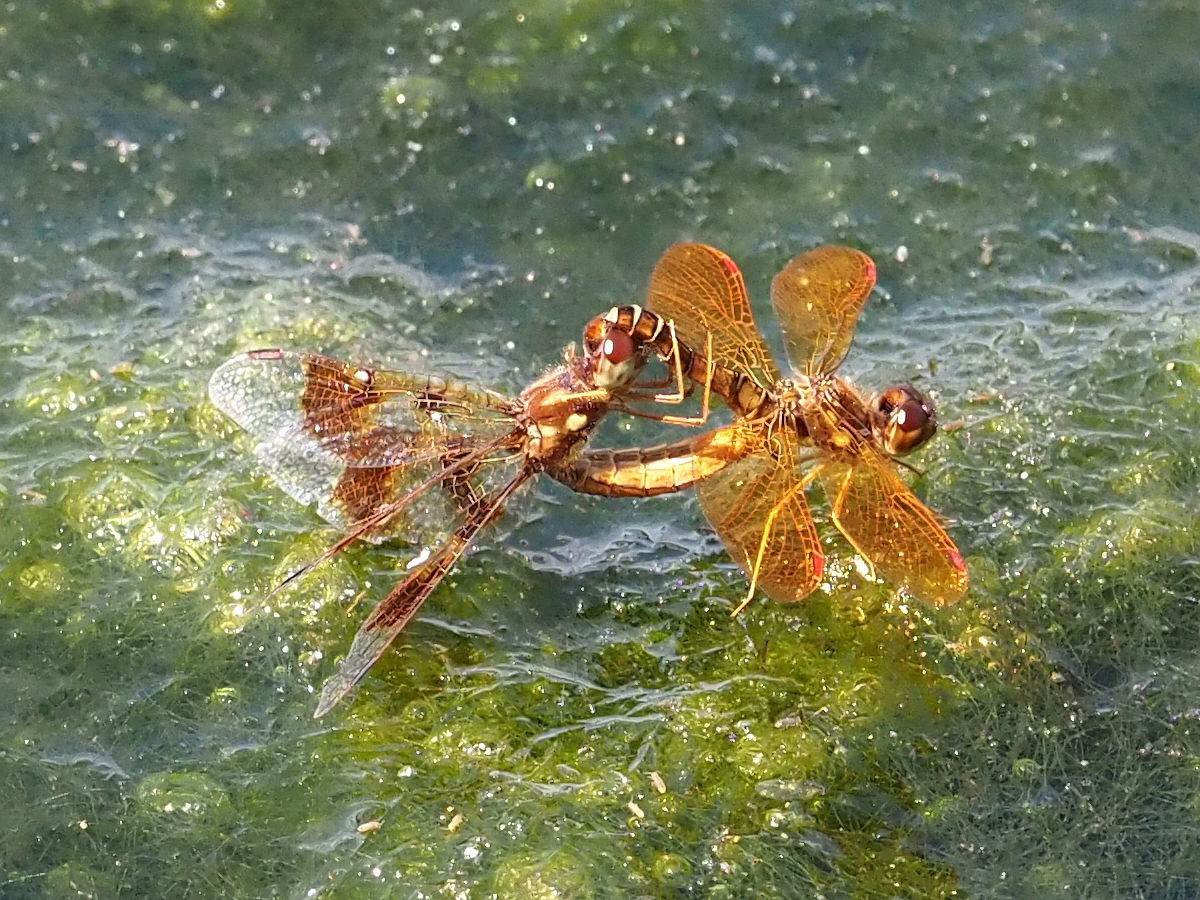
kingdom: Animalia
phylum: Arthropoda
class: Insecta
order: Odonata
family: Libellulidae
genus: Perithemis
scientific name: Perithemis tenera
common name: Eastern amberwing
